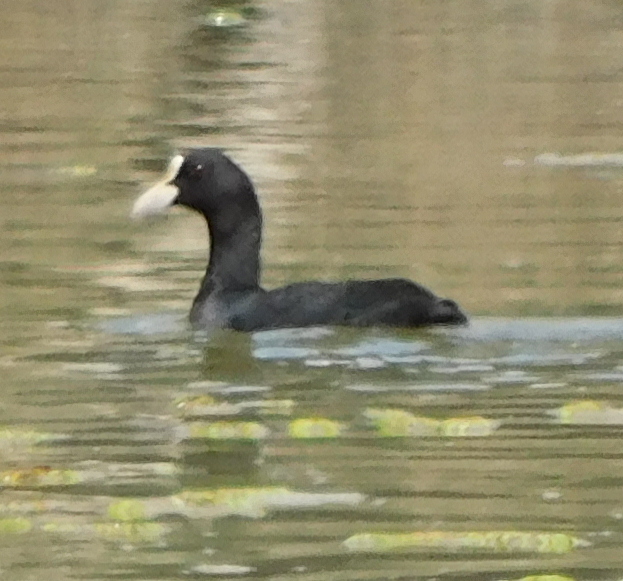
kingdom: Animalia
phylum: Chordata
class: Aves
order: Gruiformes
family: Rallidae
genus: Fulica
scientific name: Fulica atra
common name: Eurasian coot
